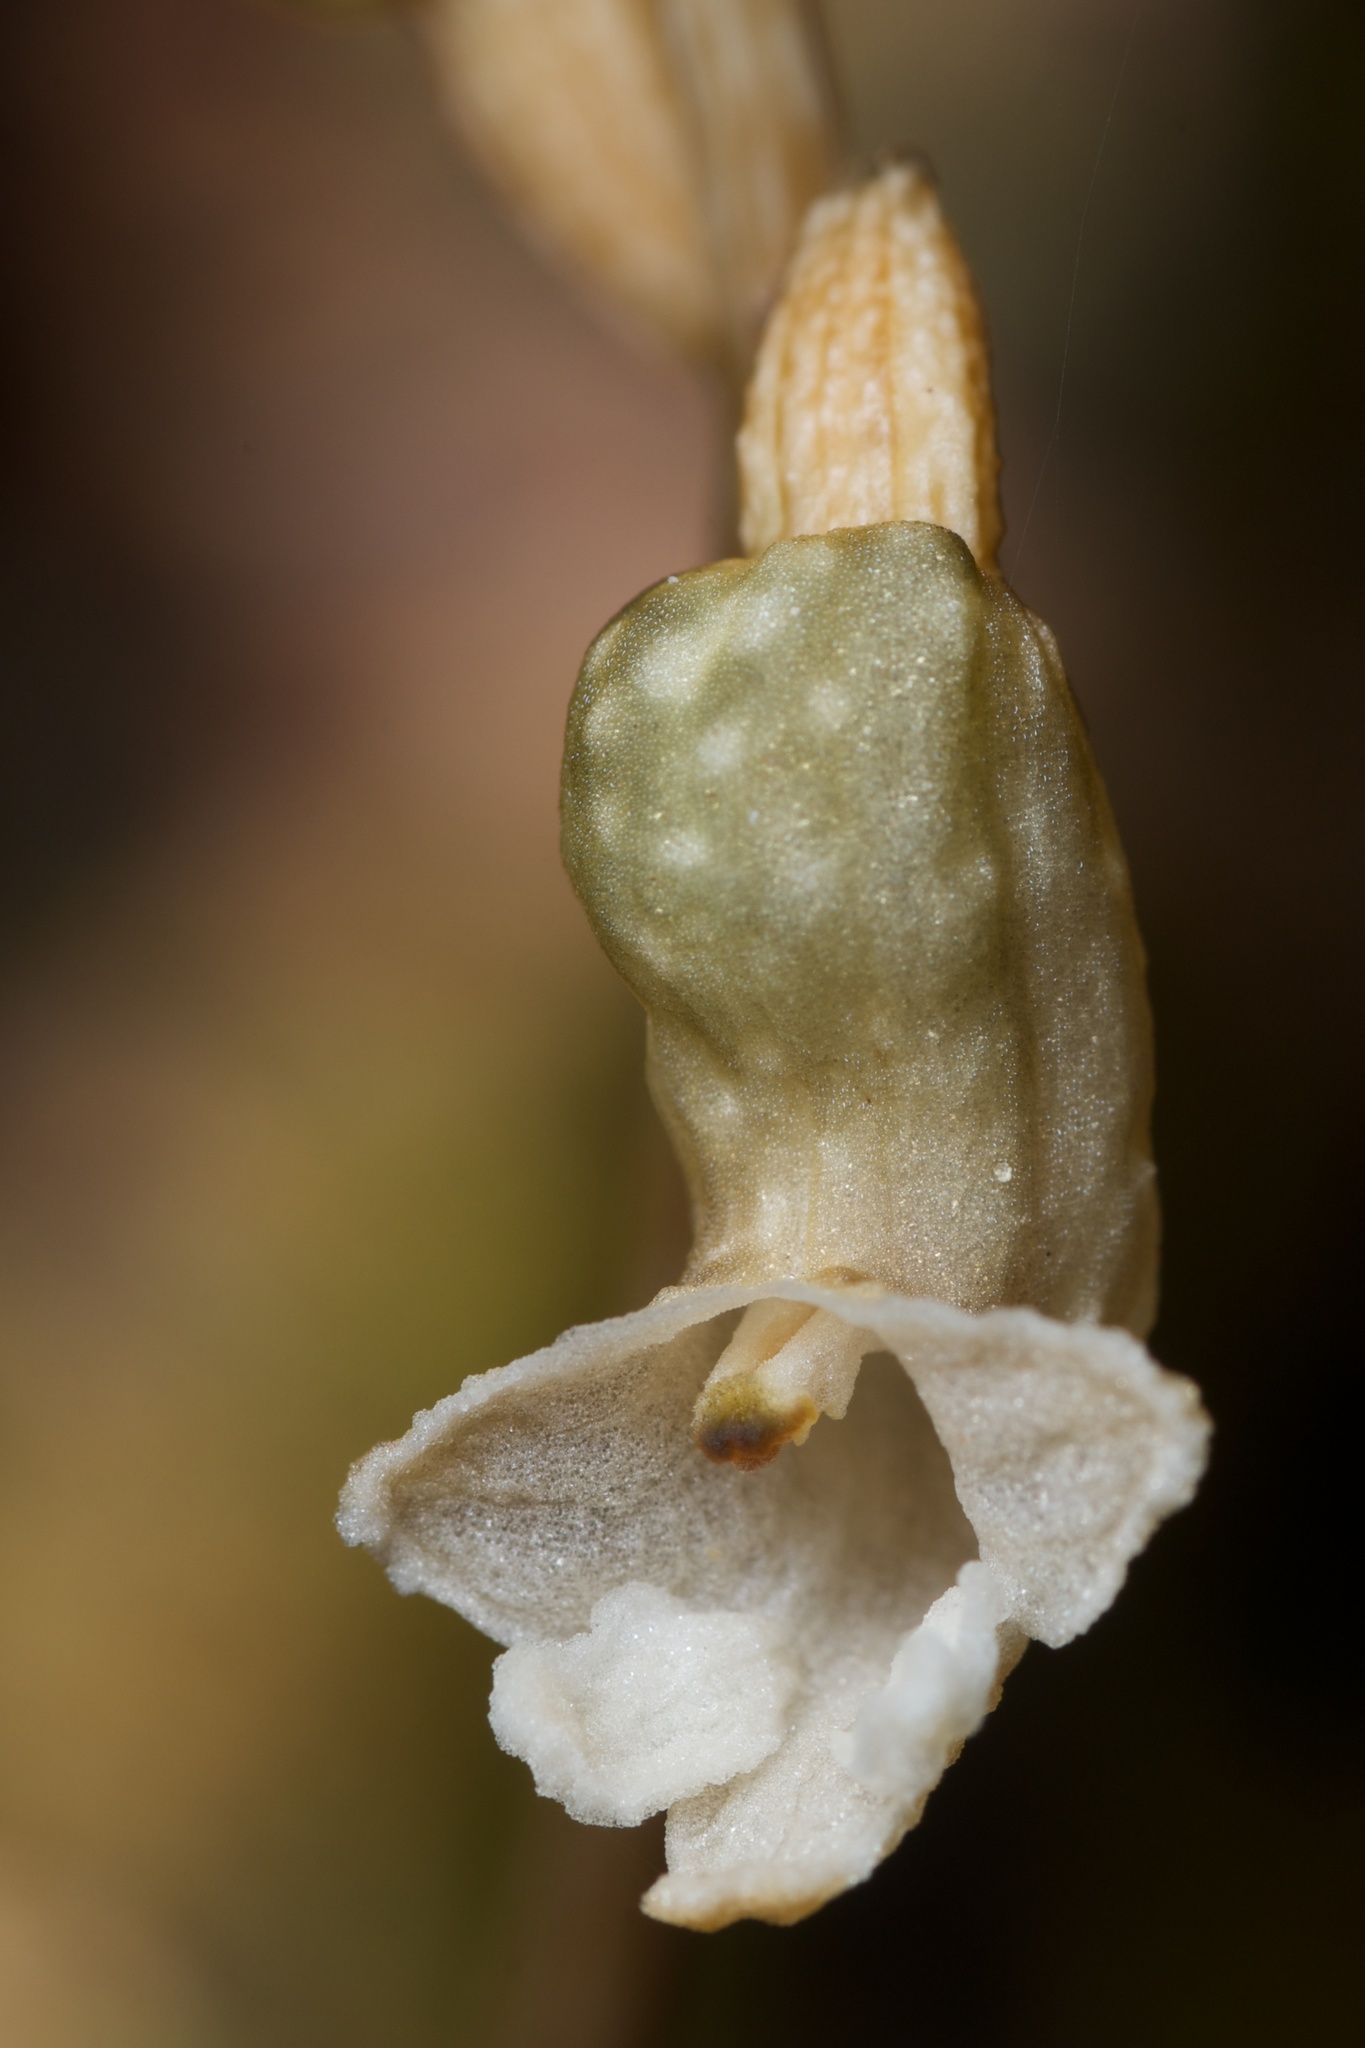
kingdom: Plantae
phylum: Tracheophyta
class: Liliopsida
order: Asparagales
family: Orchidaceae
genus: Gastrodia
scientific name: Gastrodia cunninghamii
